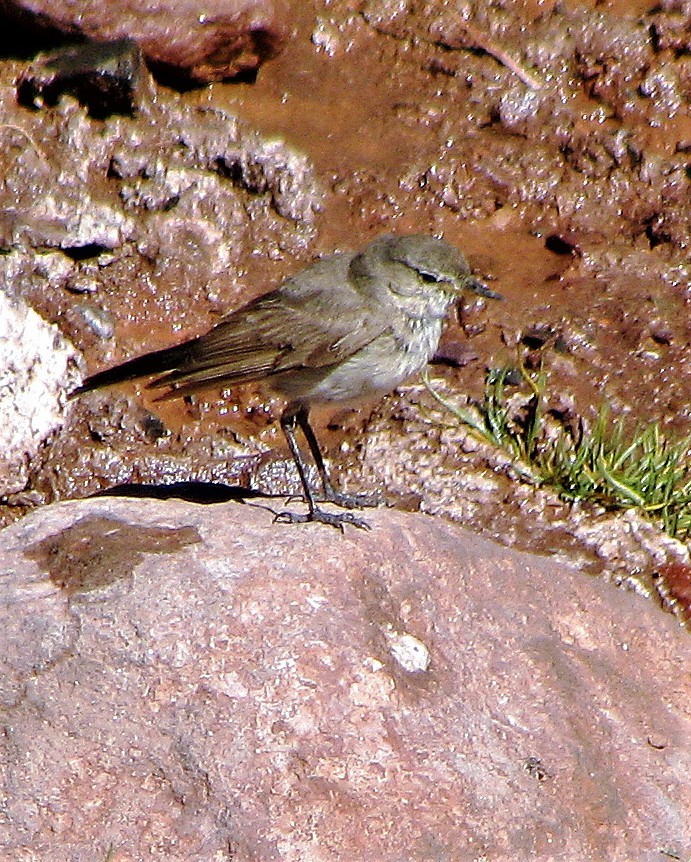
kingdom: Animalia
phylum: Chordata
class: Aves
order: Passeriformes
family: Tyrannidae
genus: Muscisaxicola
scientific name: Muscisaxicola maculirostris
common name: Spot-billed ground tyrant
